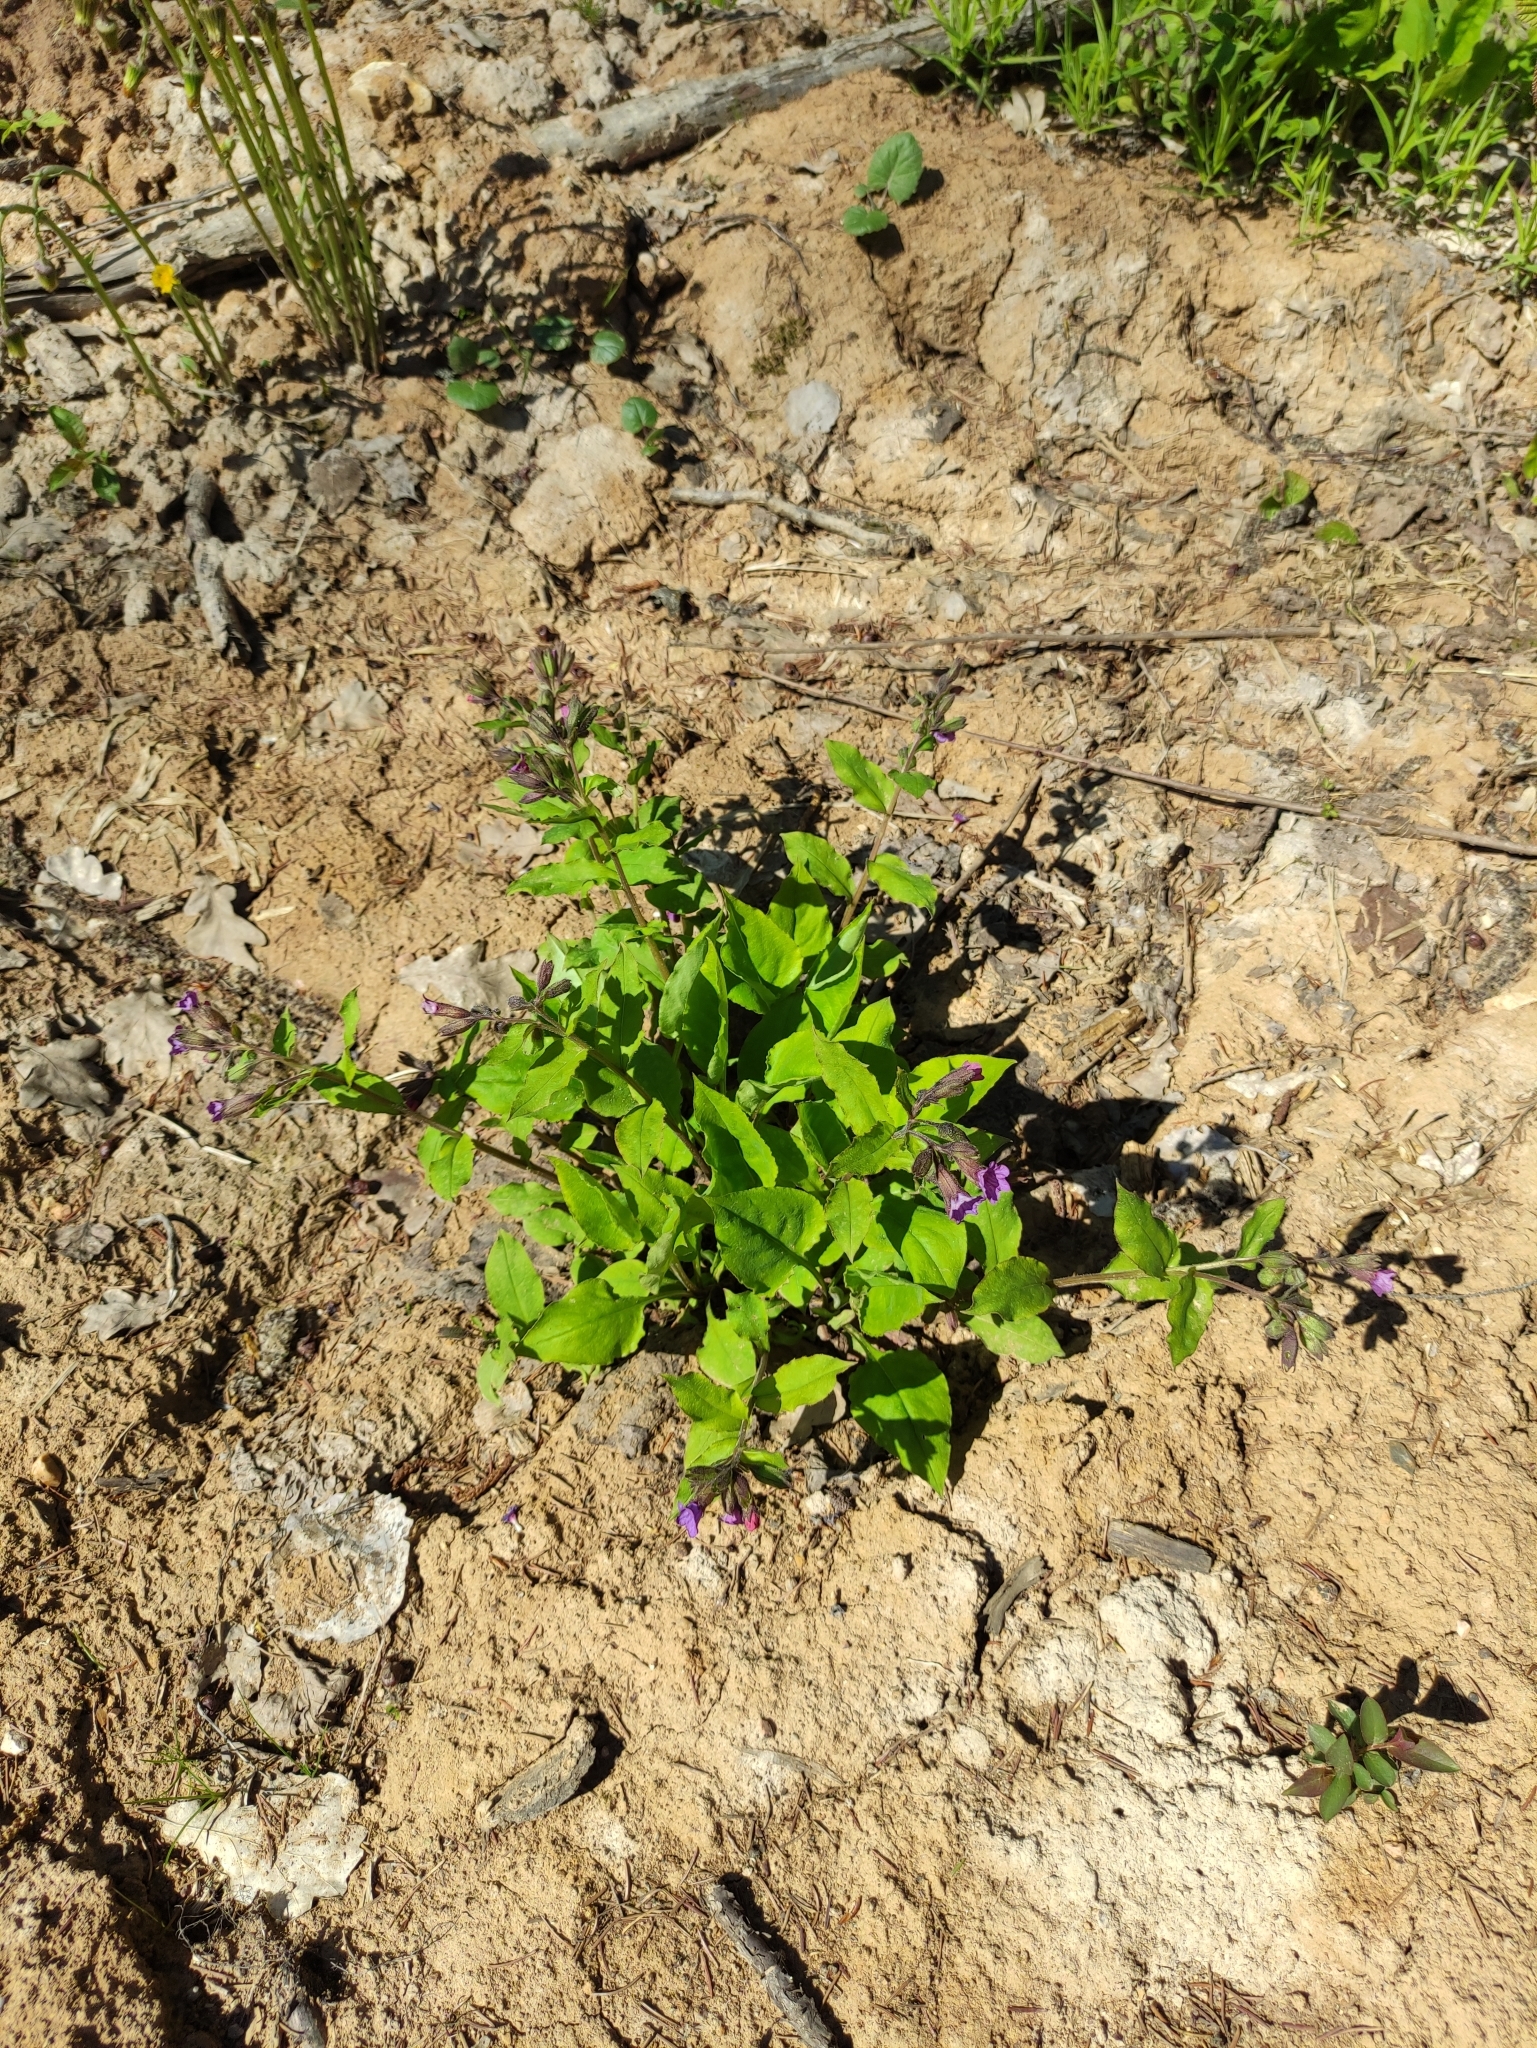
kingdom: Plantae
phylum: Tracheophyta
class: Magnoliopsida
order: Boraginales
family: Boraginaceae
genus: Pulmonaria
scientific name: Pulmonaria obscura
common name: Suffolk lungwort
